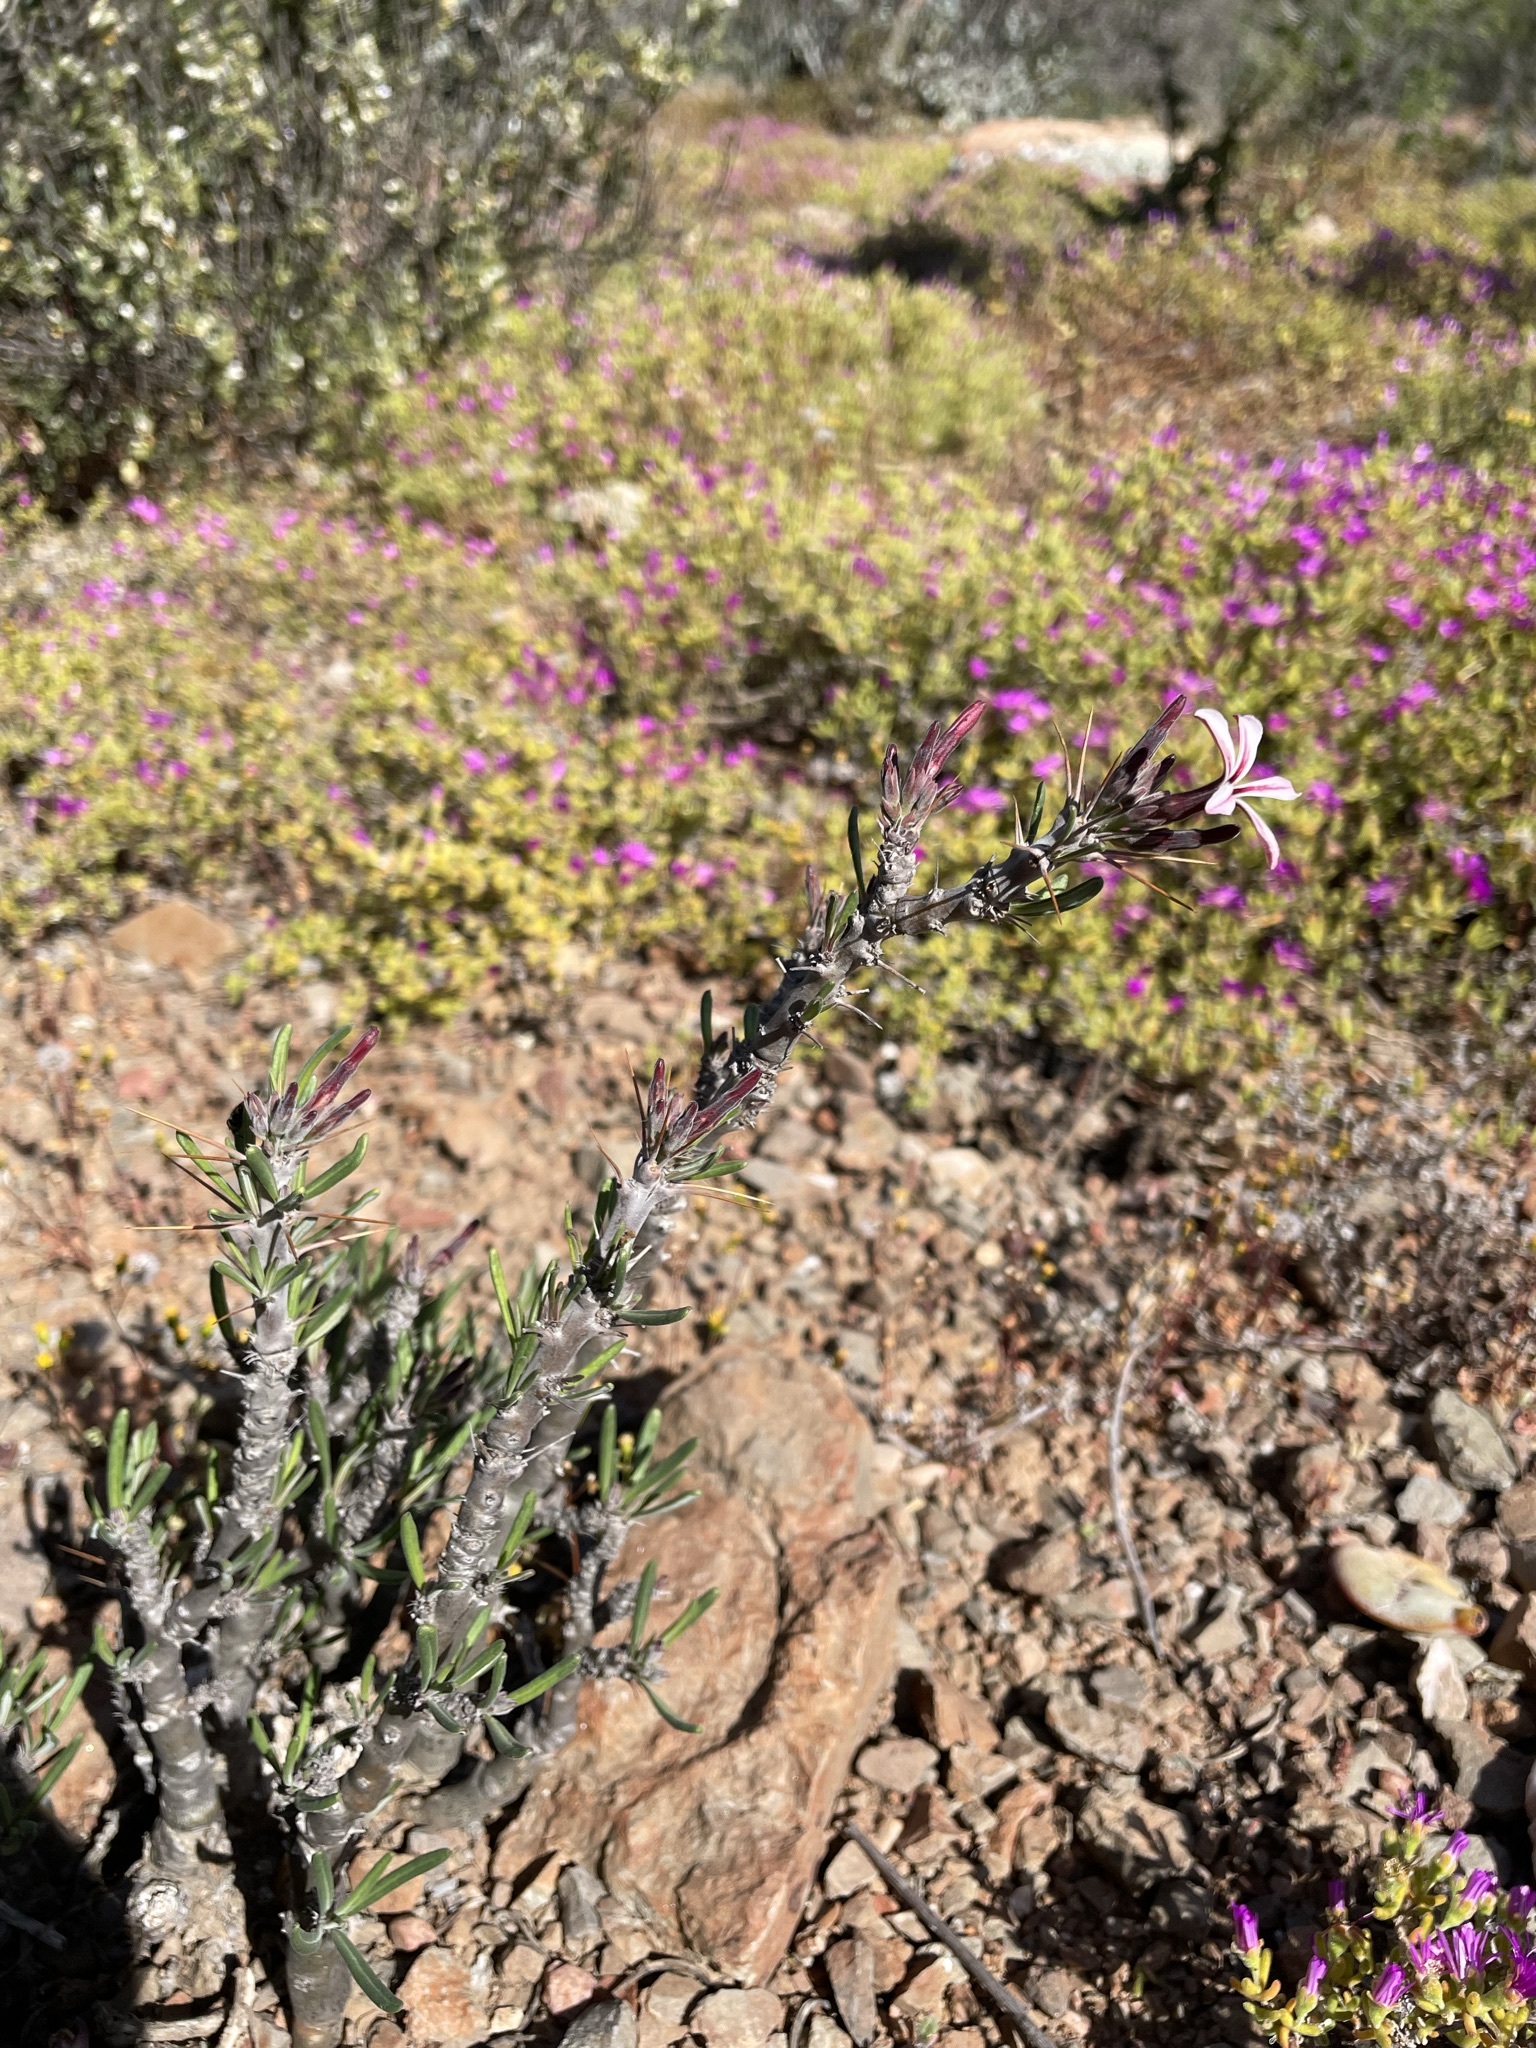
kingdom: Plantae
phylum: Tracheophyta
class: Magnoliopsida
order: Gentianales
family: Apocynaceae
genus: Pachypodium
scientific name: Pachypodium succulentum
